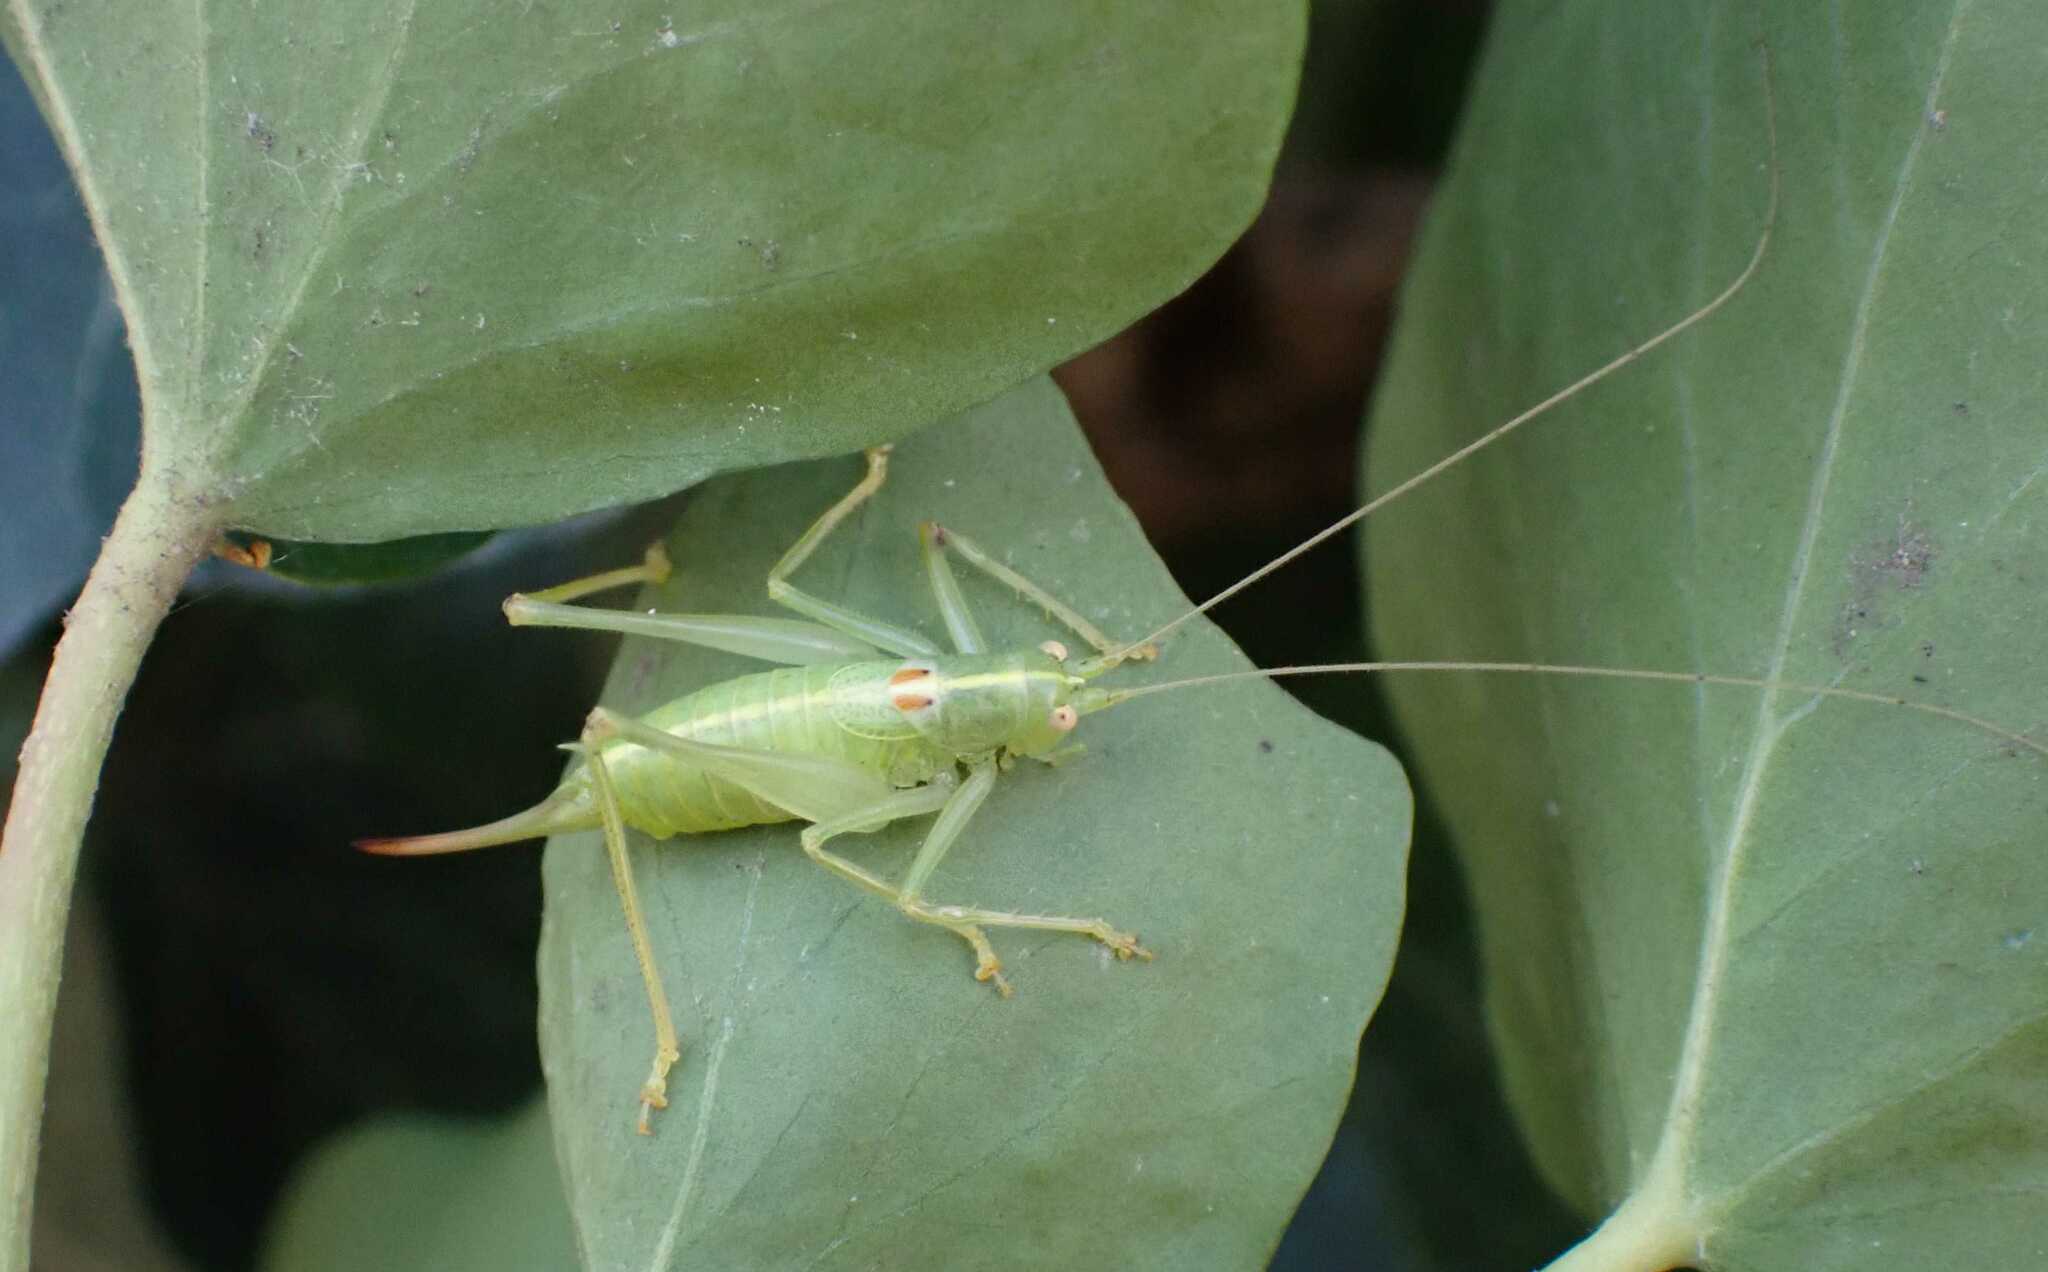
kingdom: Animalia
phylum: Arthropoda
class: Insecta
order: Orthoptera
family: Tettigoniidae
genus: Meconema
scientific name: Meconema meridionale
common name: Southern oak bush-cricket
